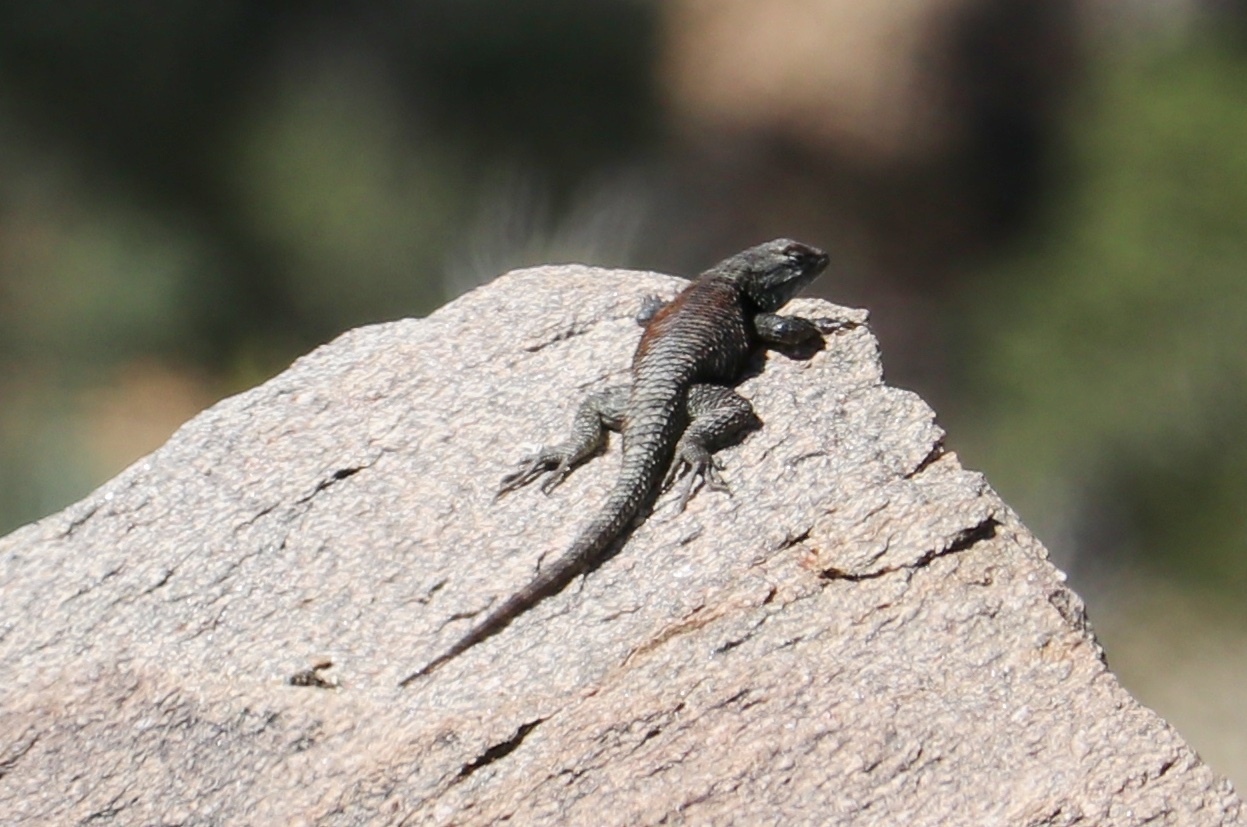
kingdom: Animalia
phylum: Chordata
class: Squamata
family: Phrynosomatidae
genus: Sceloporus
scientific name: Sceloporus uniformis
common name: Yellow-backed spiny lizard
